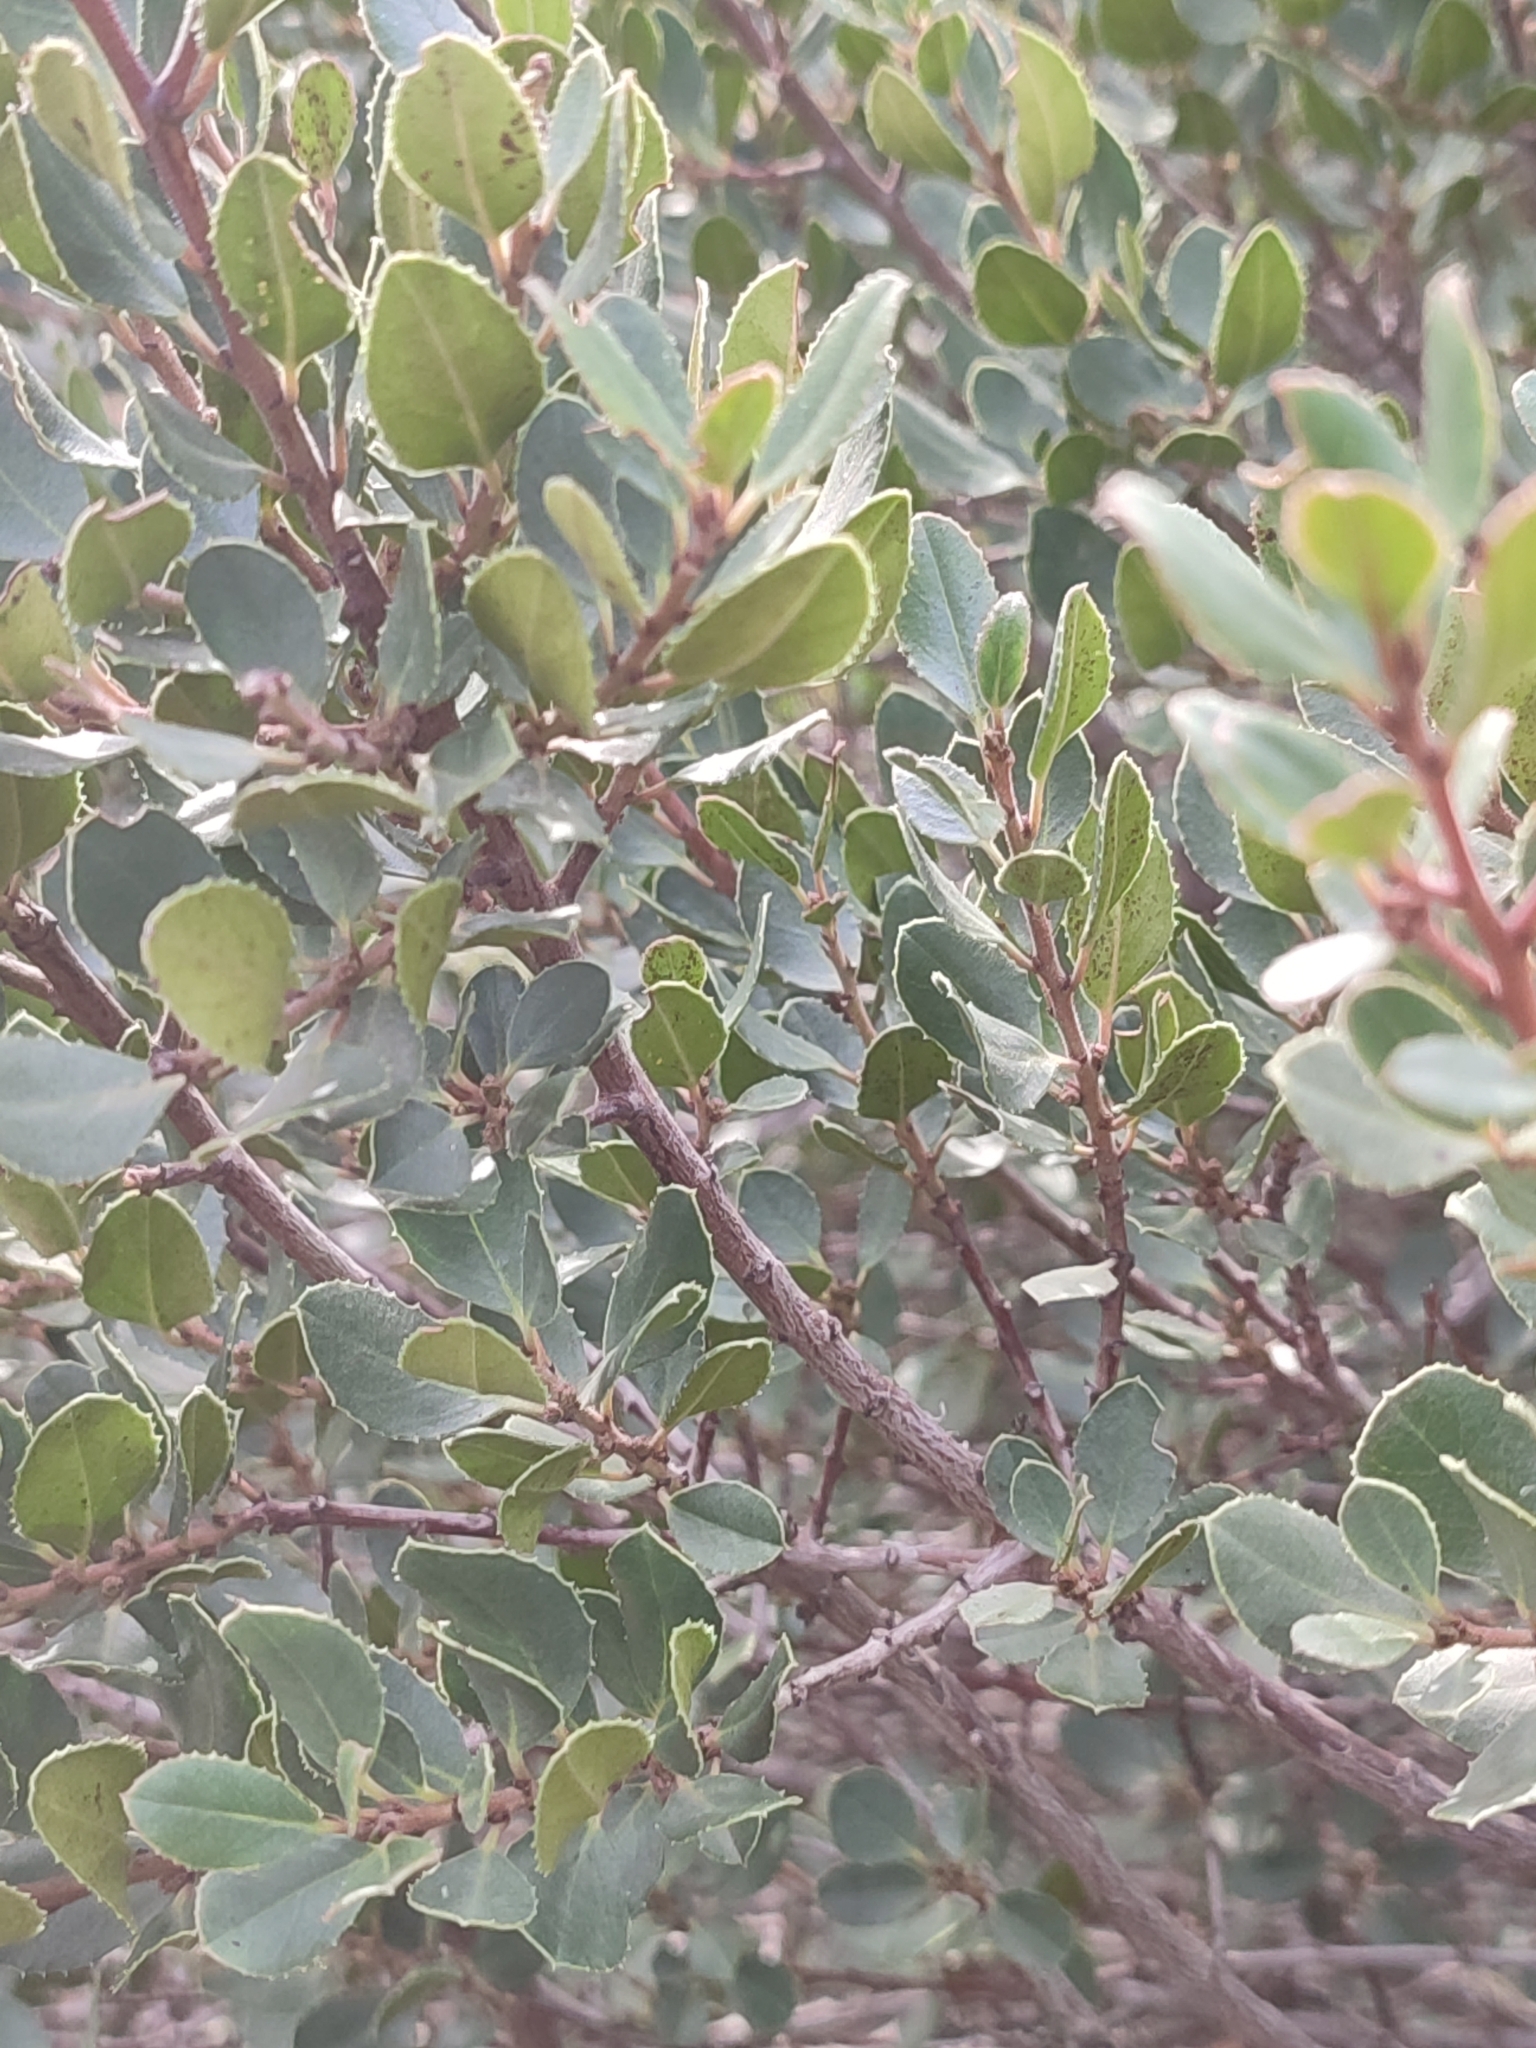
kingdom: Plantae
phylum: Tracheophyta
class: Magnoliopsida
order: Rosales
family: Rhamnaceae
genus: Rhamnus
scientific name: Rhamnus alaternus
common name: Mediterranean buckthorn
